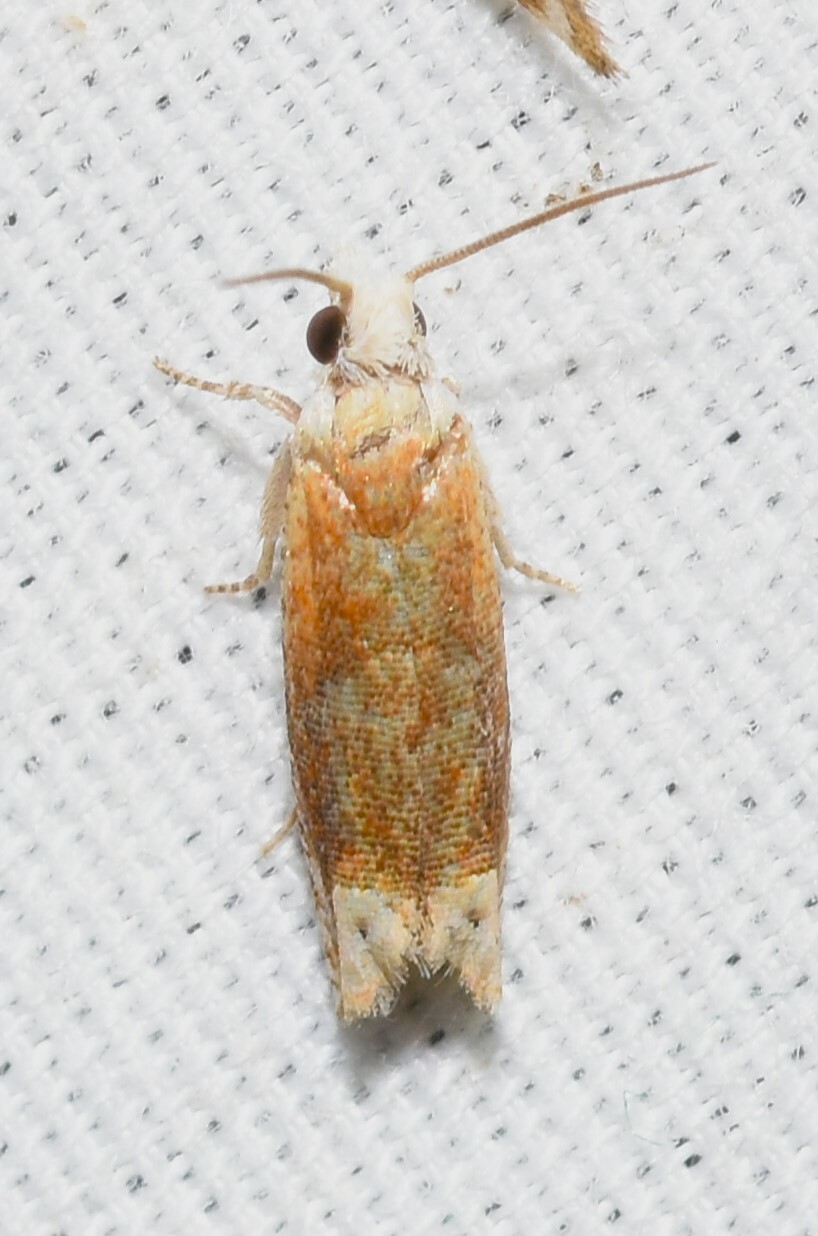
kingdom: Animalia
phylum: Arthropoda
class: Insecta
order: Lepidoptera
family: Tortricidae
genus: Eucosma
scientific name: Eucosma raracana
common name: Reddish eucosma moth
